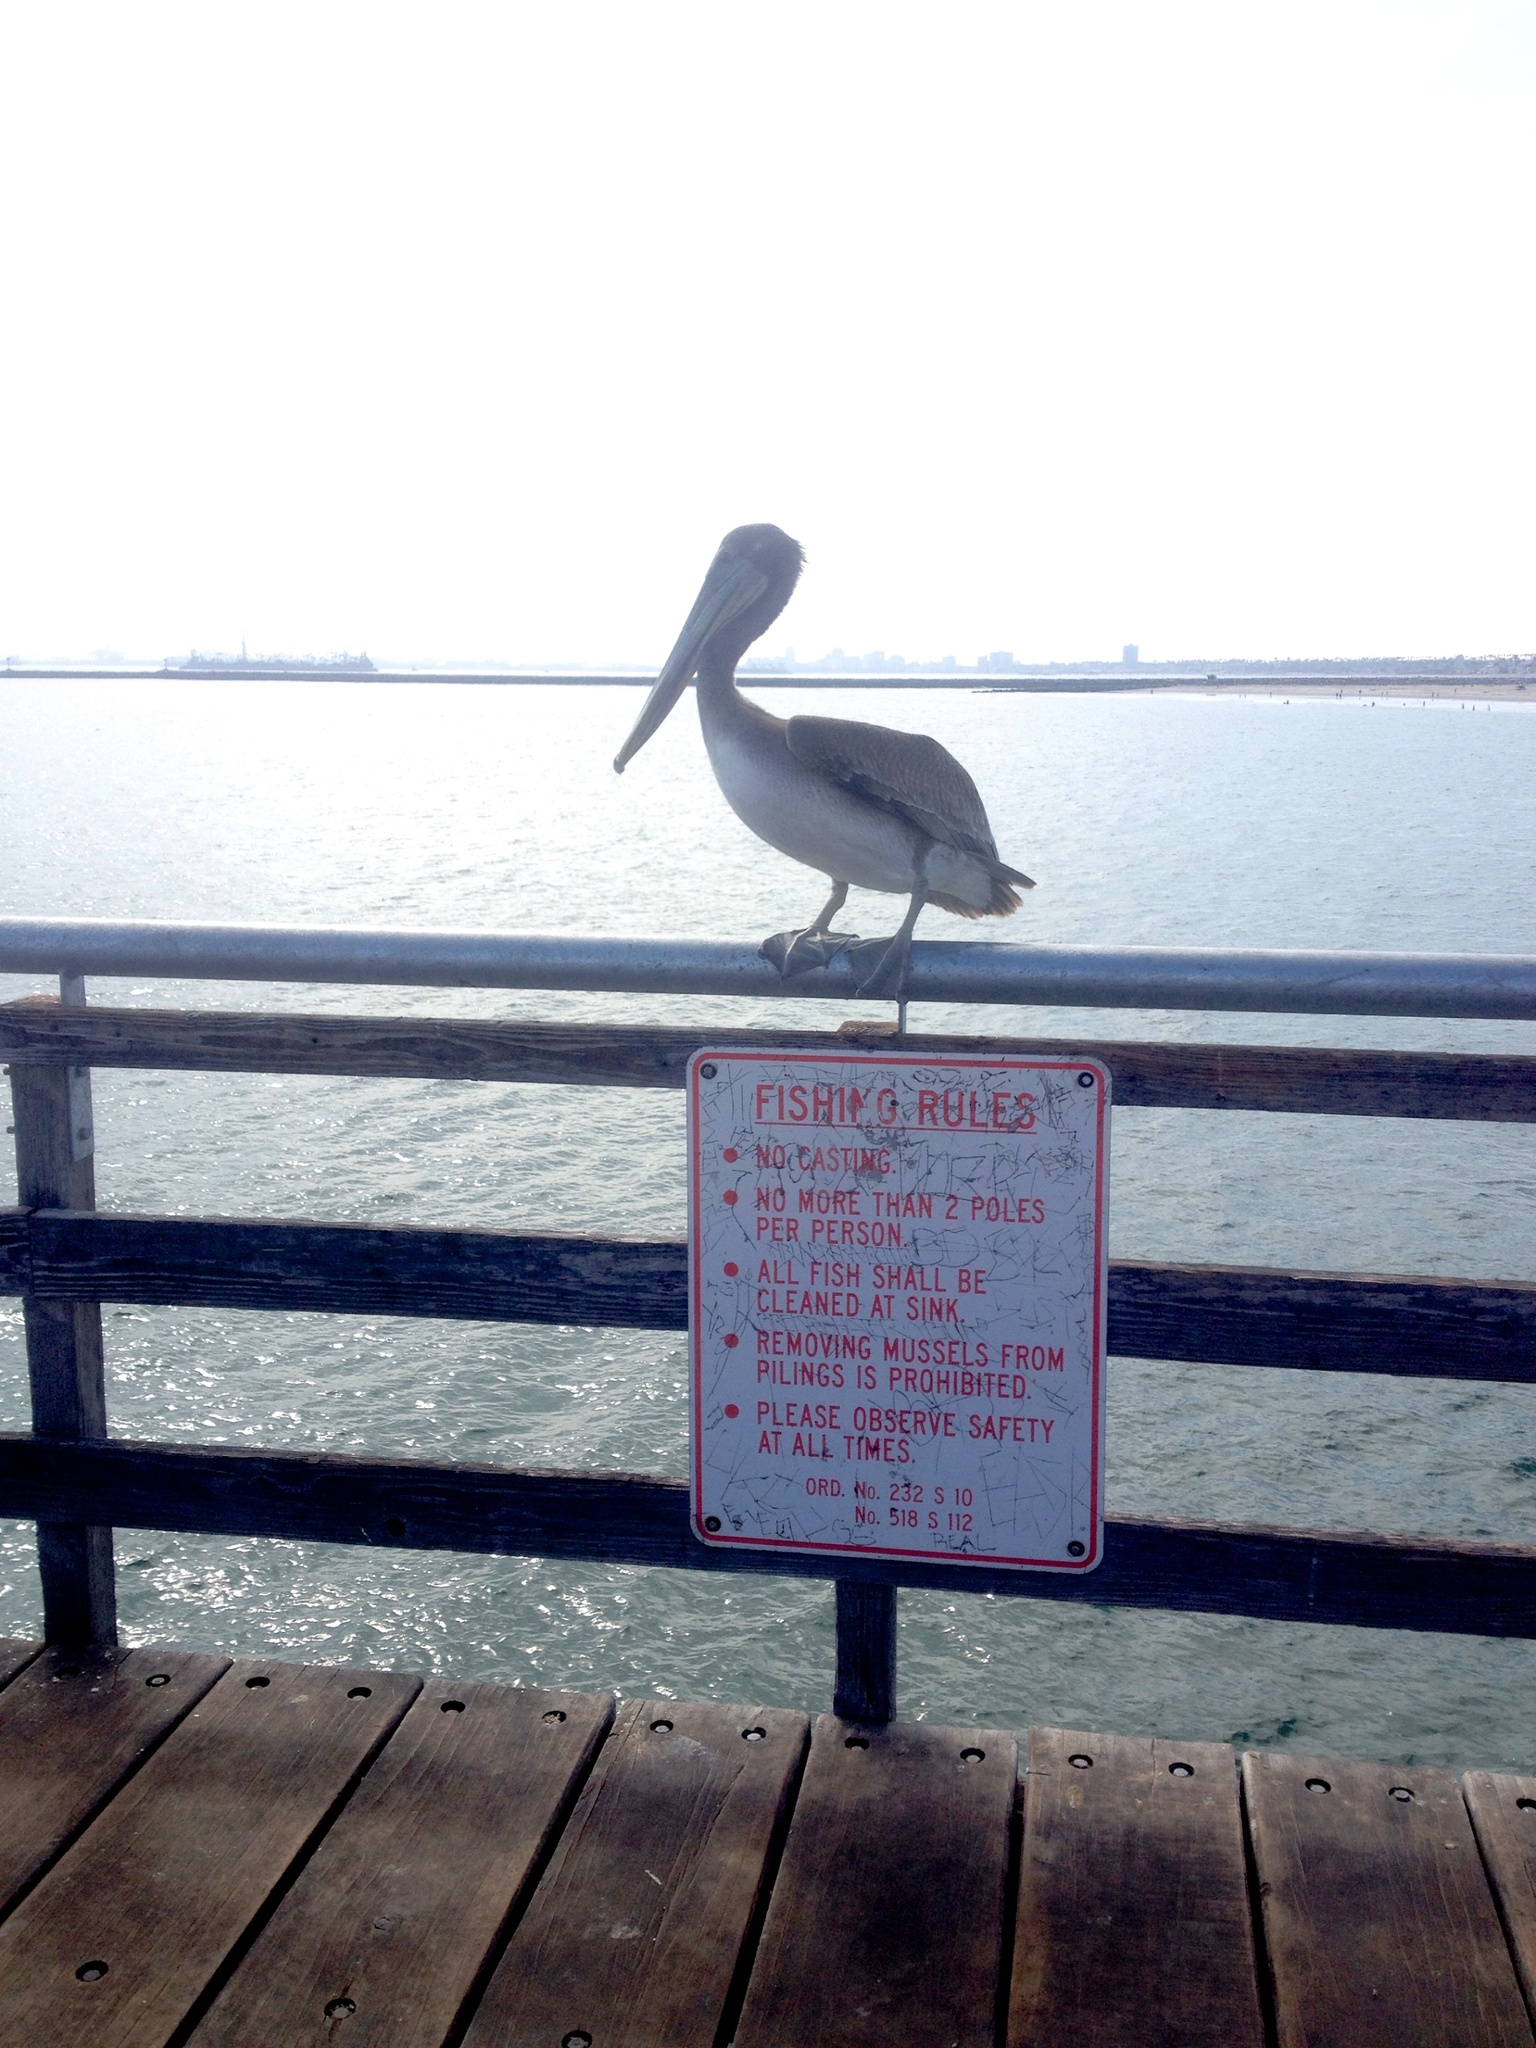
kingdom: Animalia
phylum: Chordata
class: Aves
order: Pelecaniformes
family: Pelecanidae
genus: Pelecanus
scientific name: Pelecanus occidentalis
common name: Brown pelican
